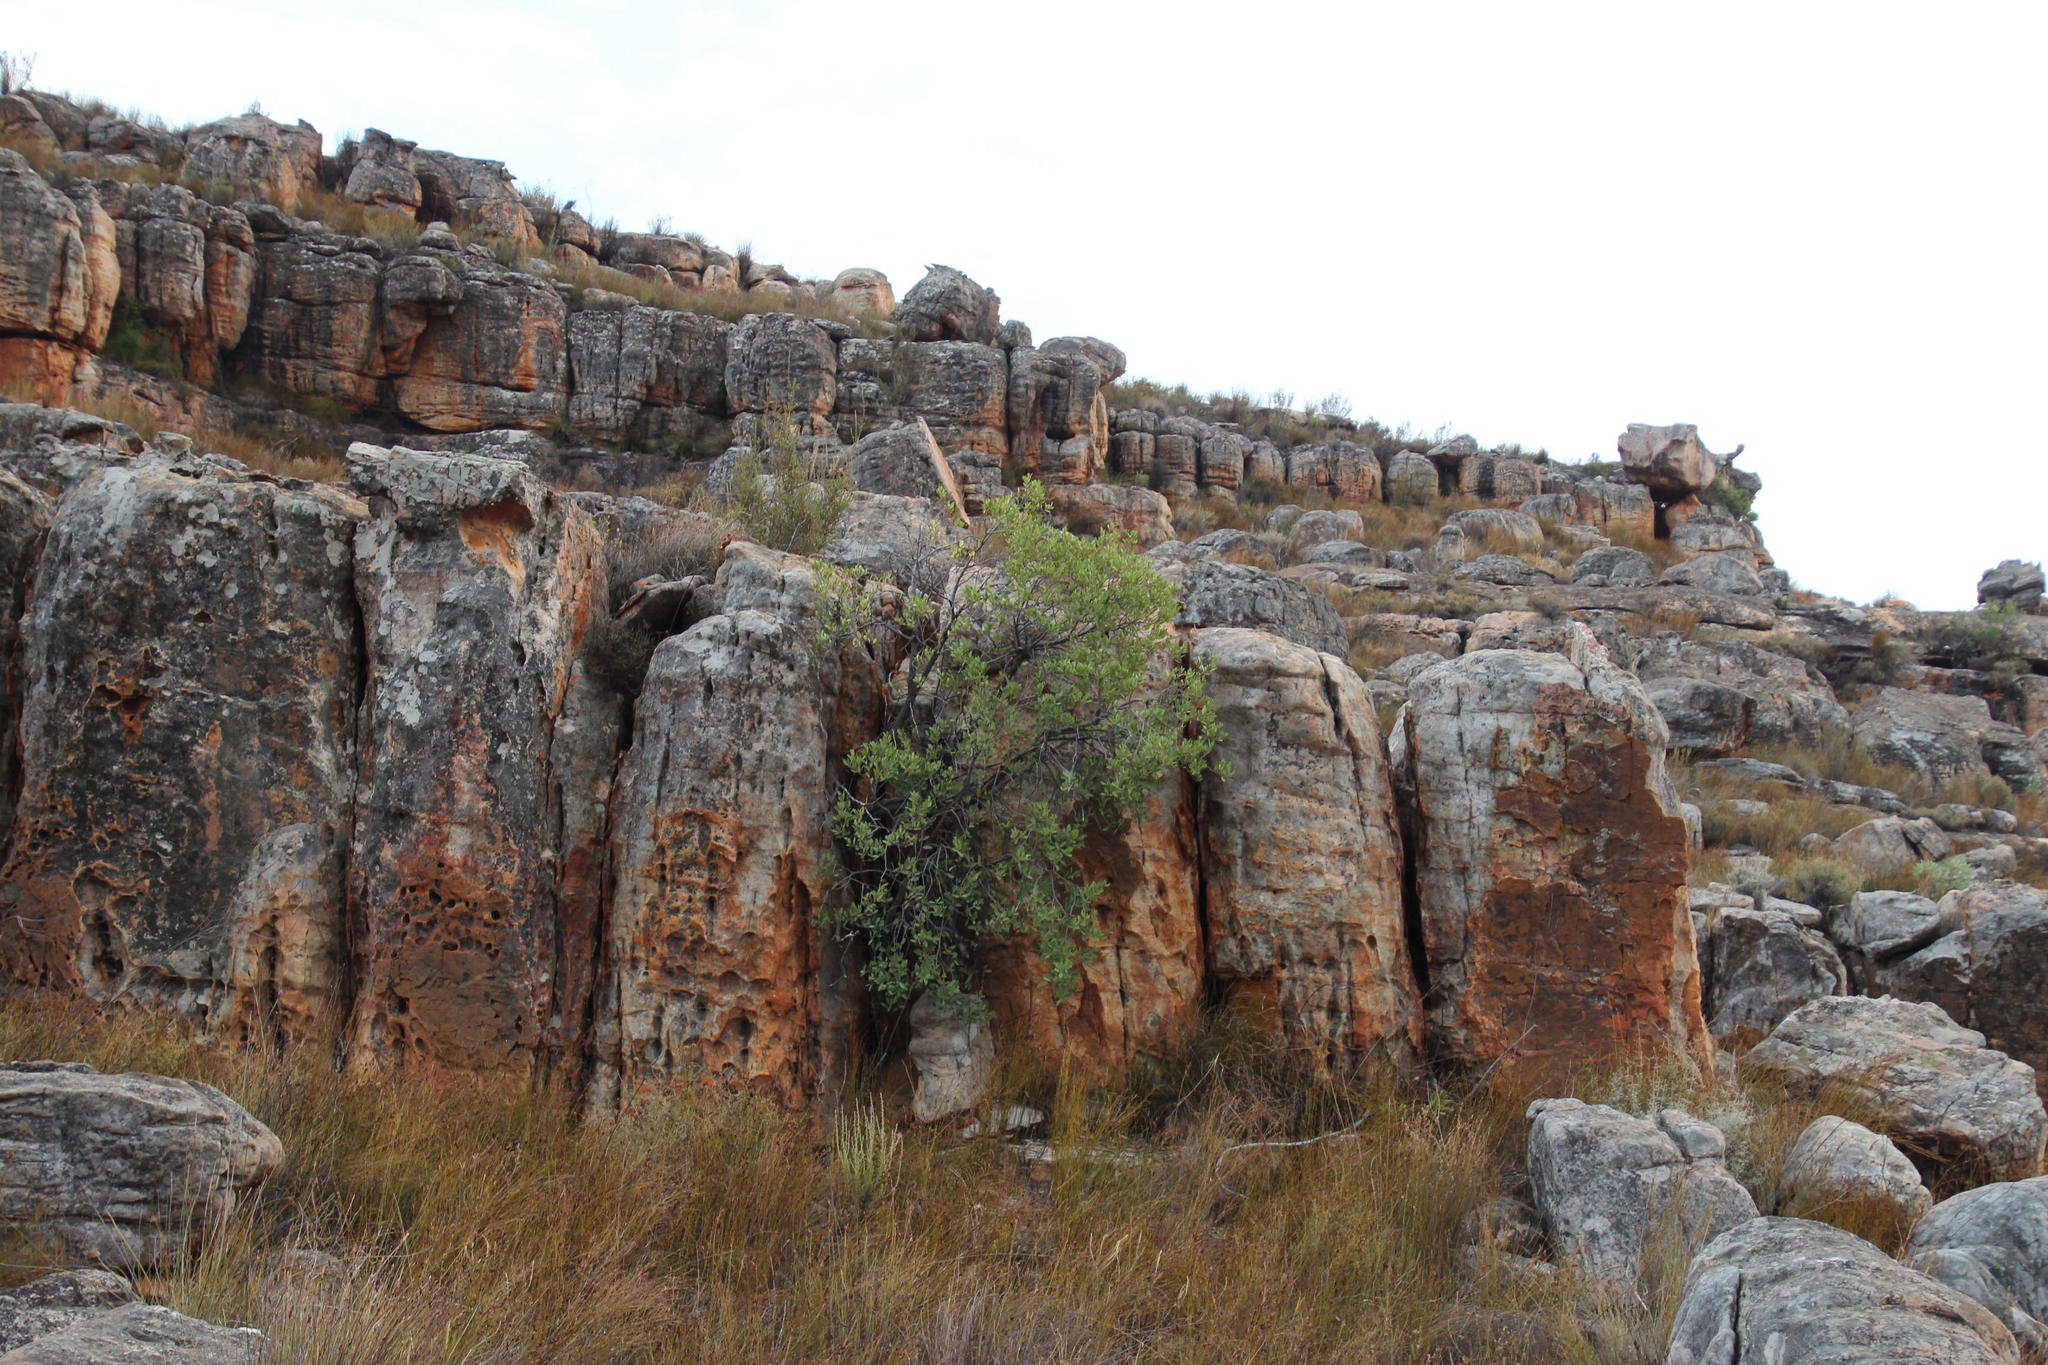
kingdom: Plantae
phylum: Tracheophyta
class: Magnoliopsida
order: Celastrales
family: Celastraceae
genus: Gymnosporia
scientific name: Gymnosporia laurina
